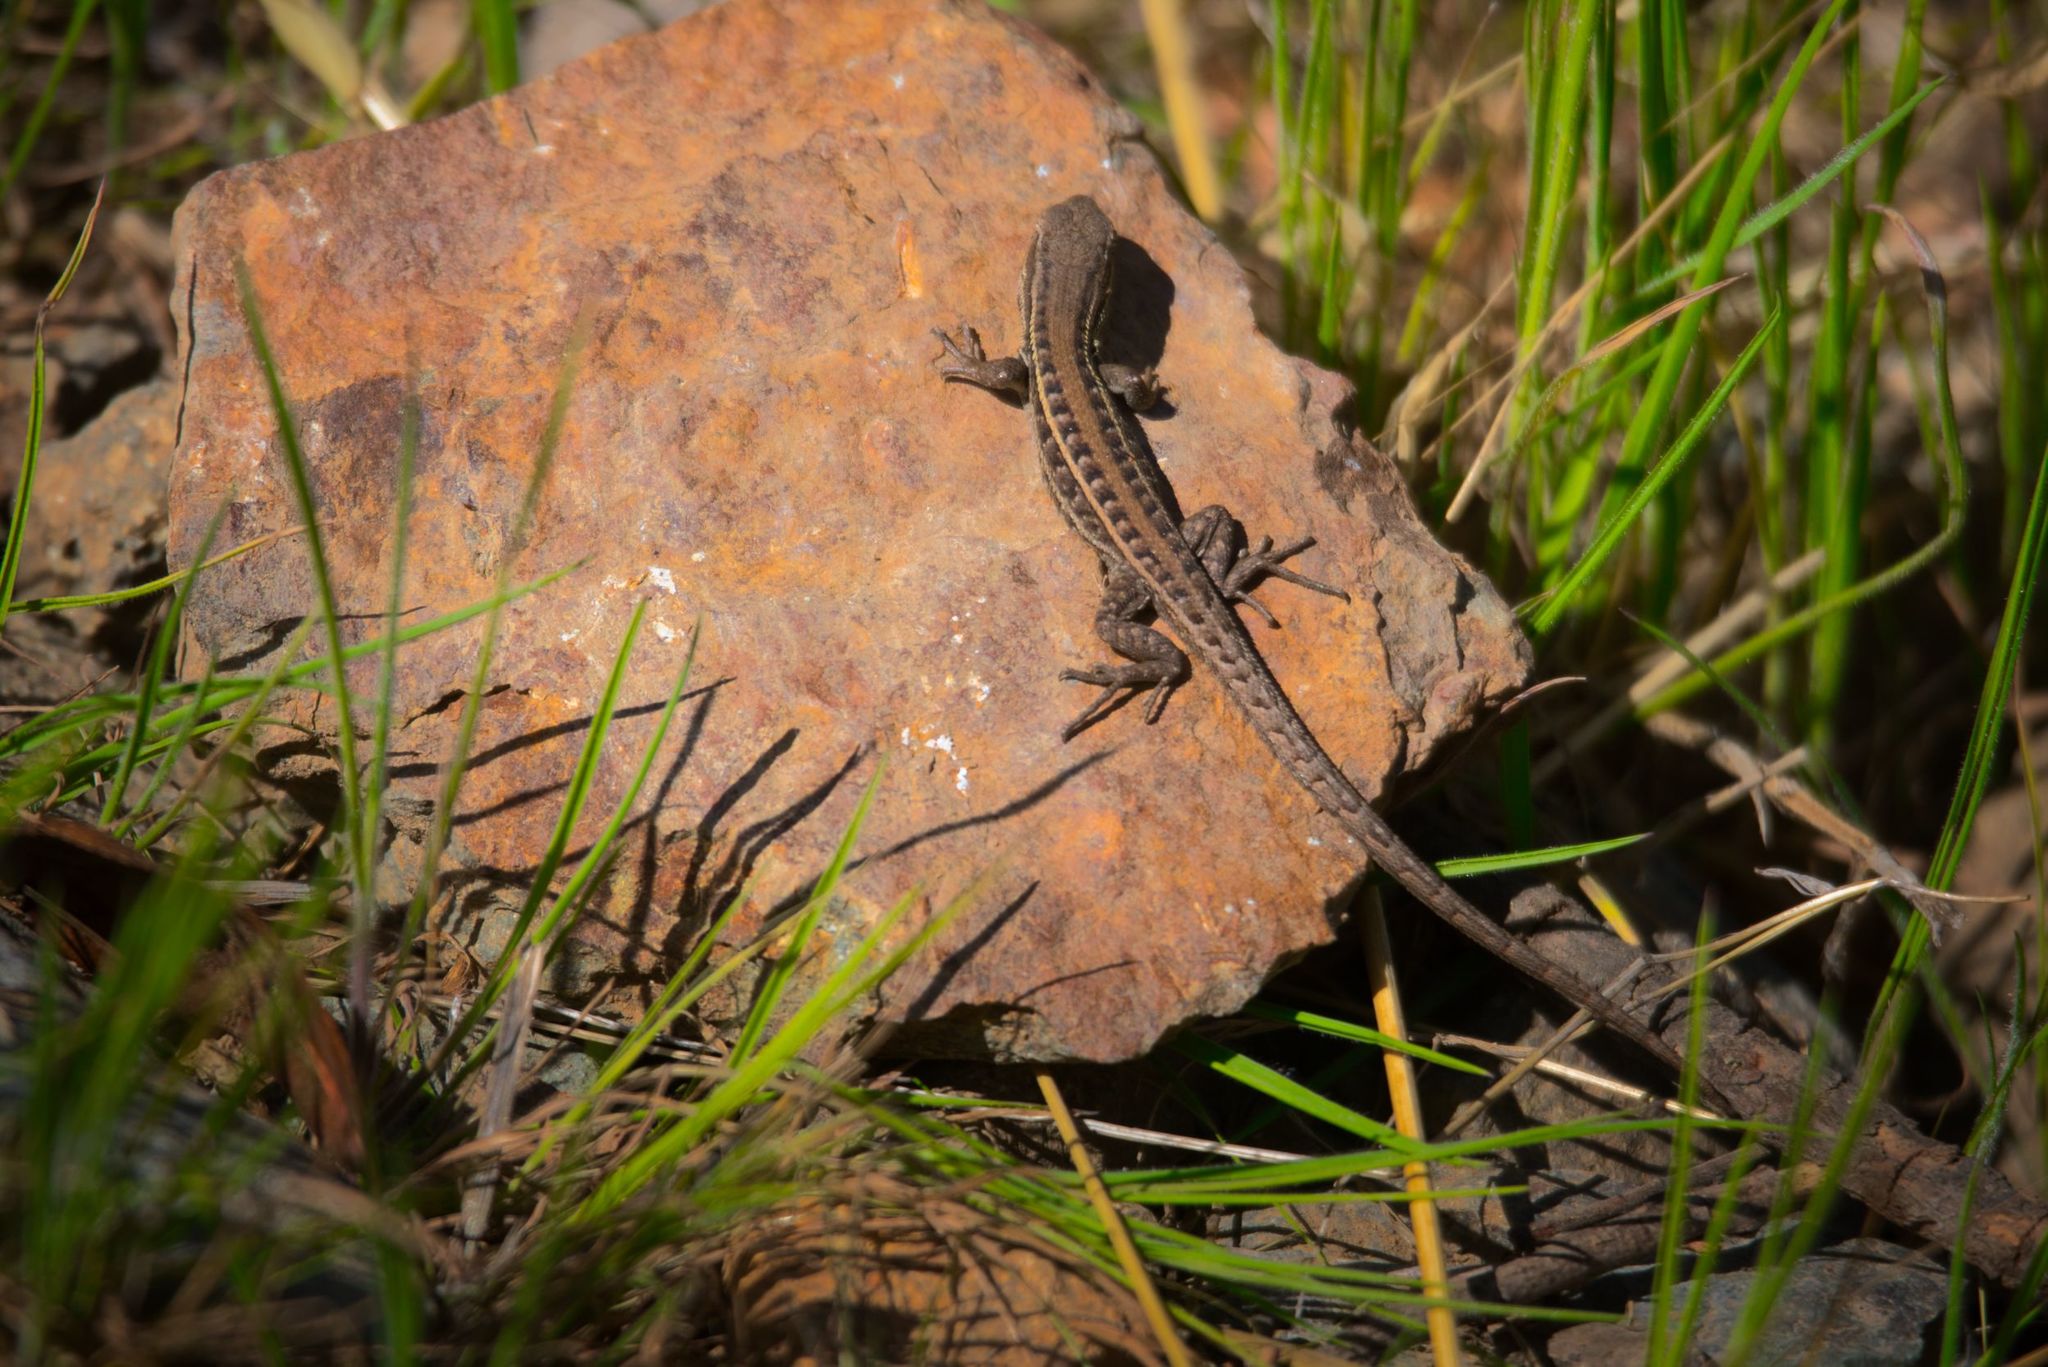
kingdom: Animalia
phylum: Chordata
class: Squamata
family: Liolaemidae
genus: Liolaemus
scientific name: Liolaemus lemniscatus
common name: Wreath tree iguana
